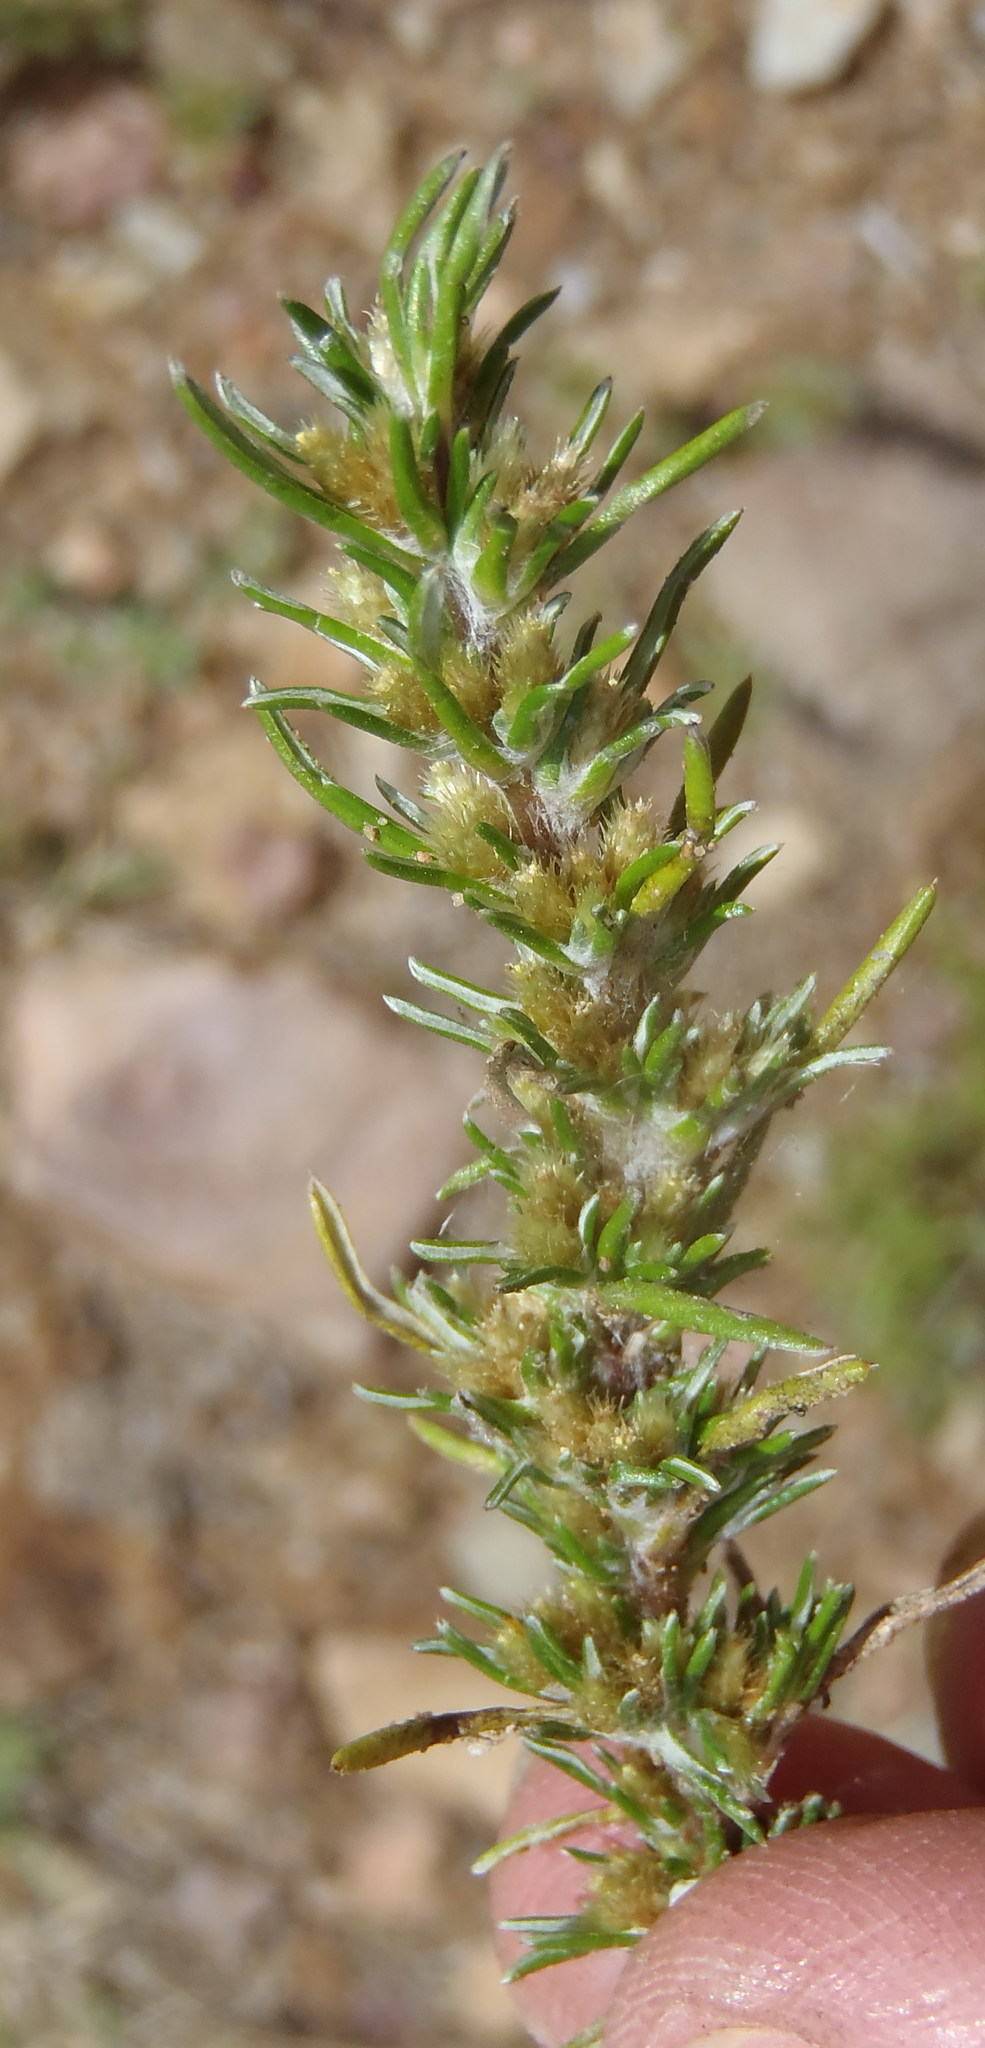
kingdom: Plantae
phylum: Tracheophyta
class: Magnoliopsida
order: Asterales
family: Asteraceae
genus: Ifloga
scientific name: Ifloga glomerata
